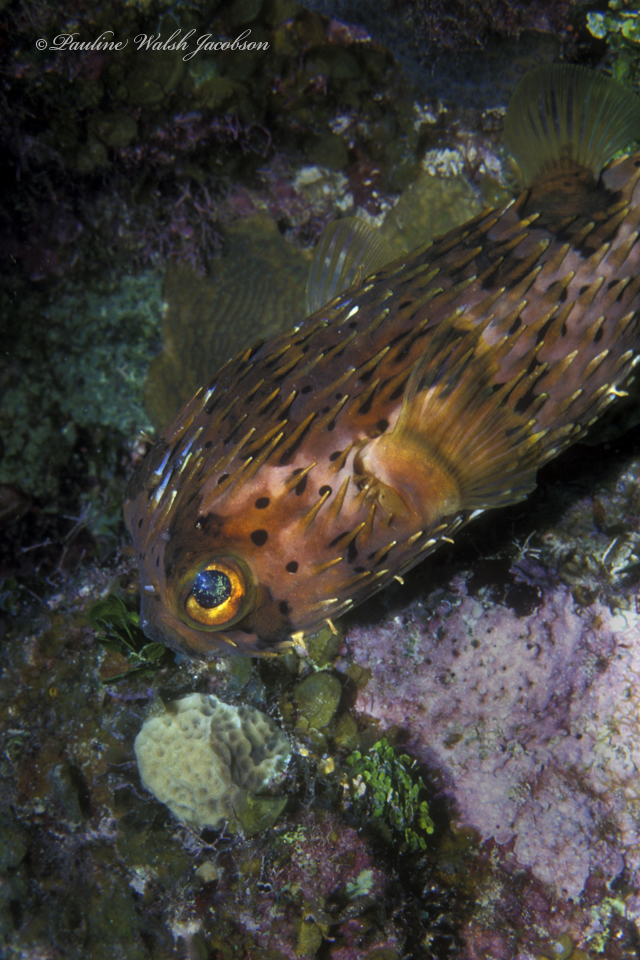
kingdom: Animalia
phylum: Chordata
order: Tetraodontiformes
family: Diodontidae
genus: Diodon
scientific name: Diodon holocanthus
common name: Balloonfish
